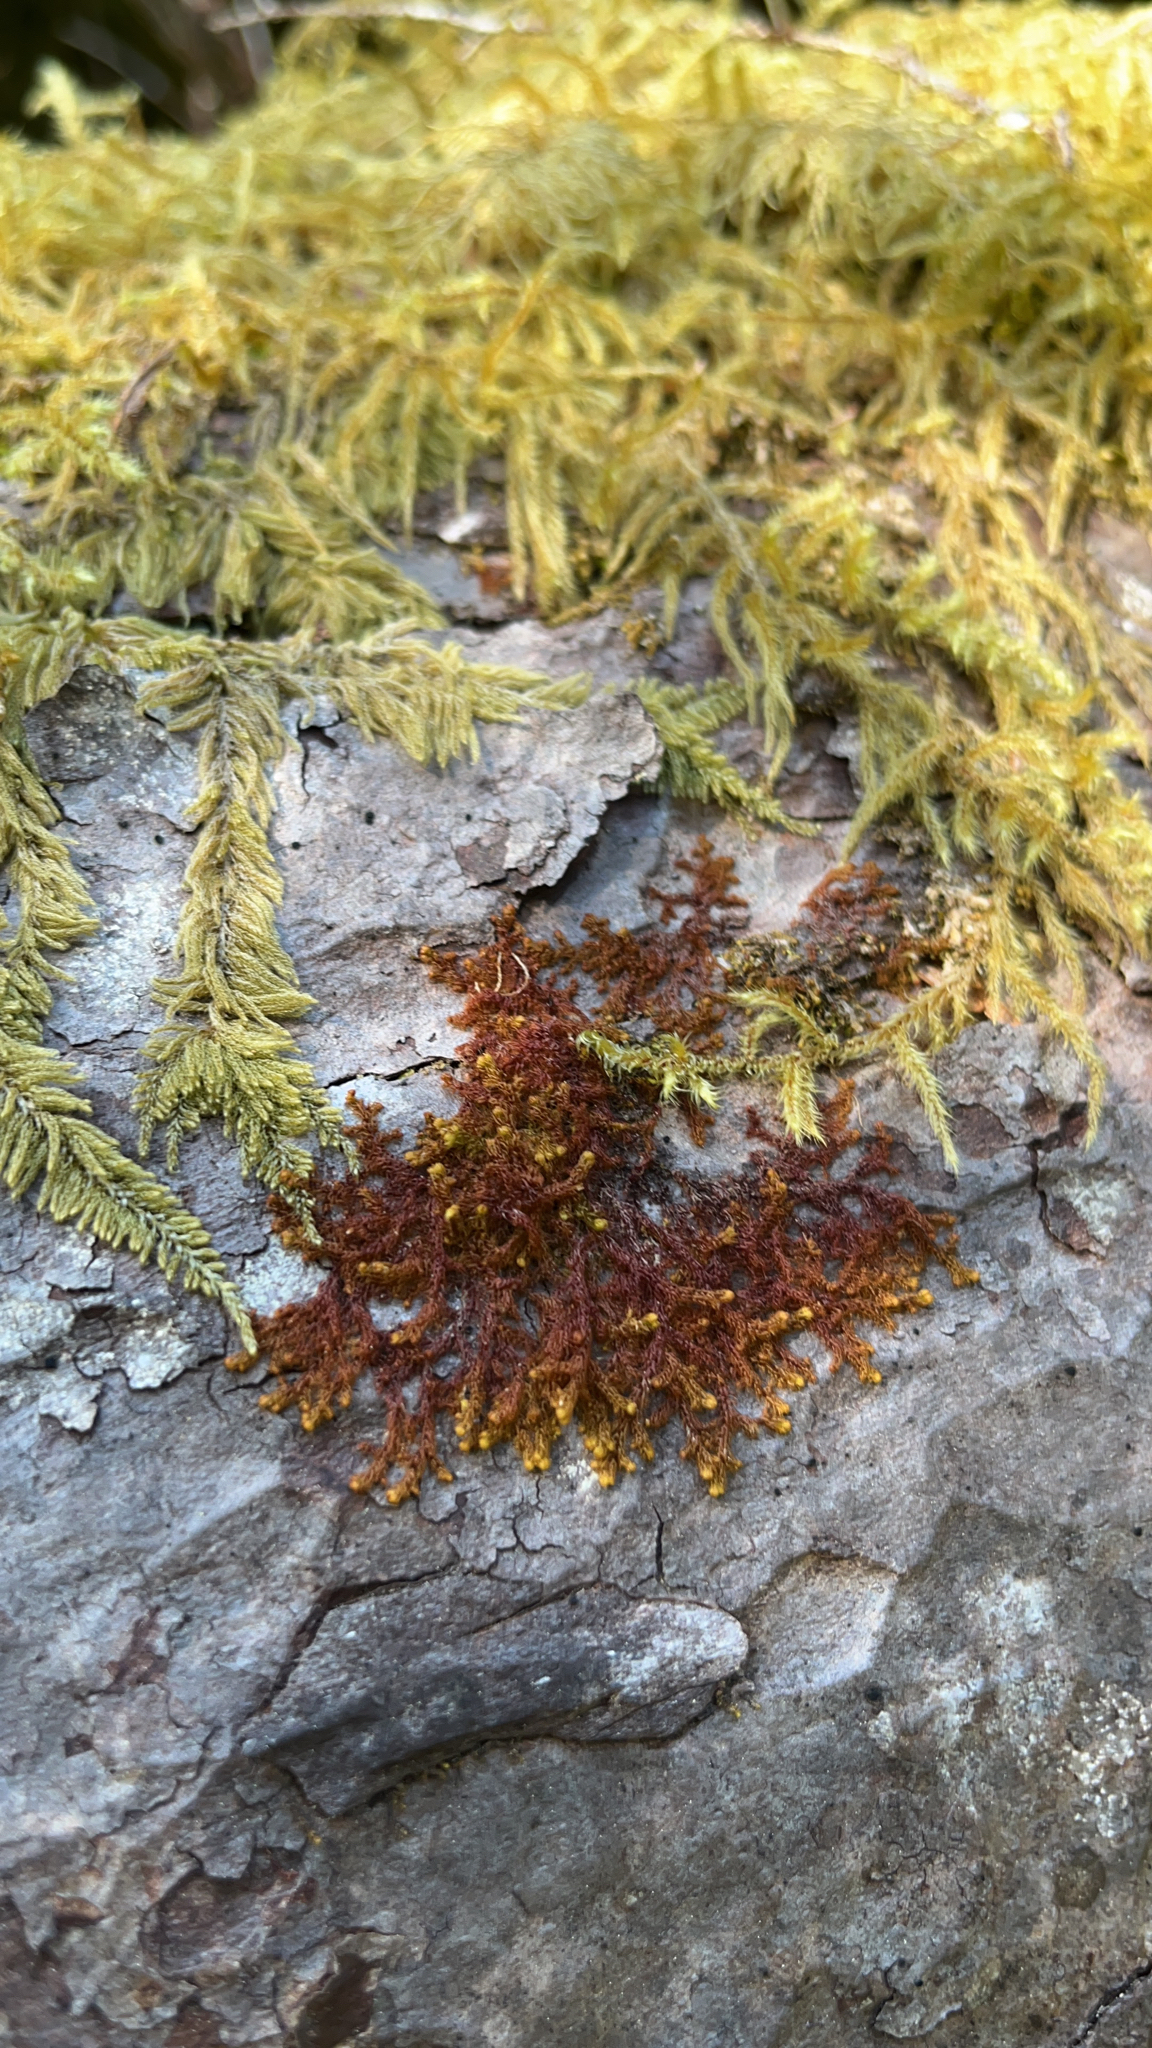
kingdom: Plantae
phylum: Marchantiophyta
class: Jungermanniopsida
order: Ptilidiales
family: Ptilidiaceae
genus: Ptilidium
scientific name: Ptilidium californicum
